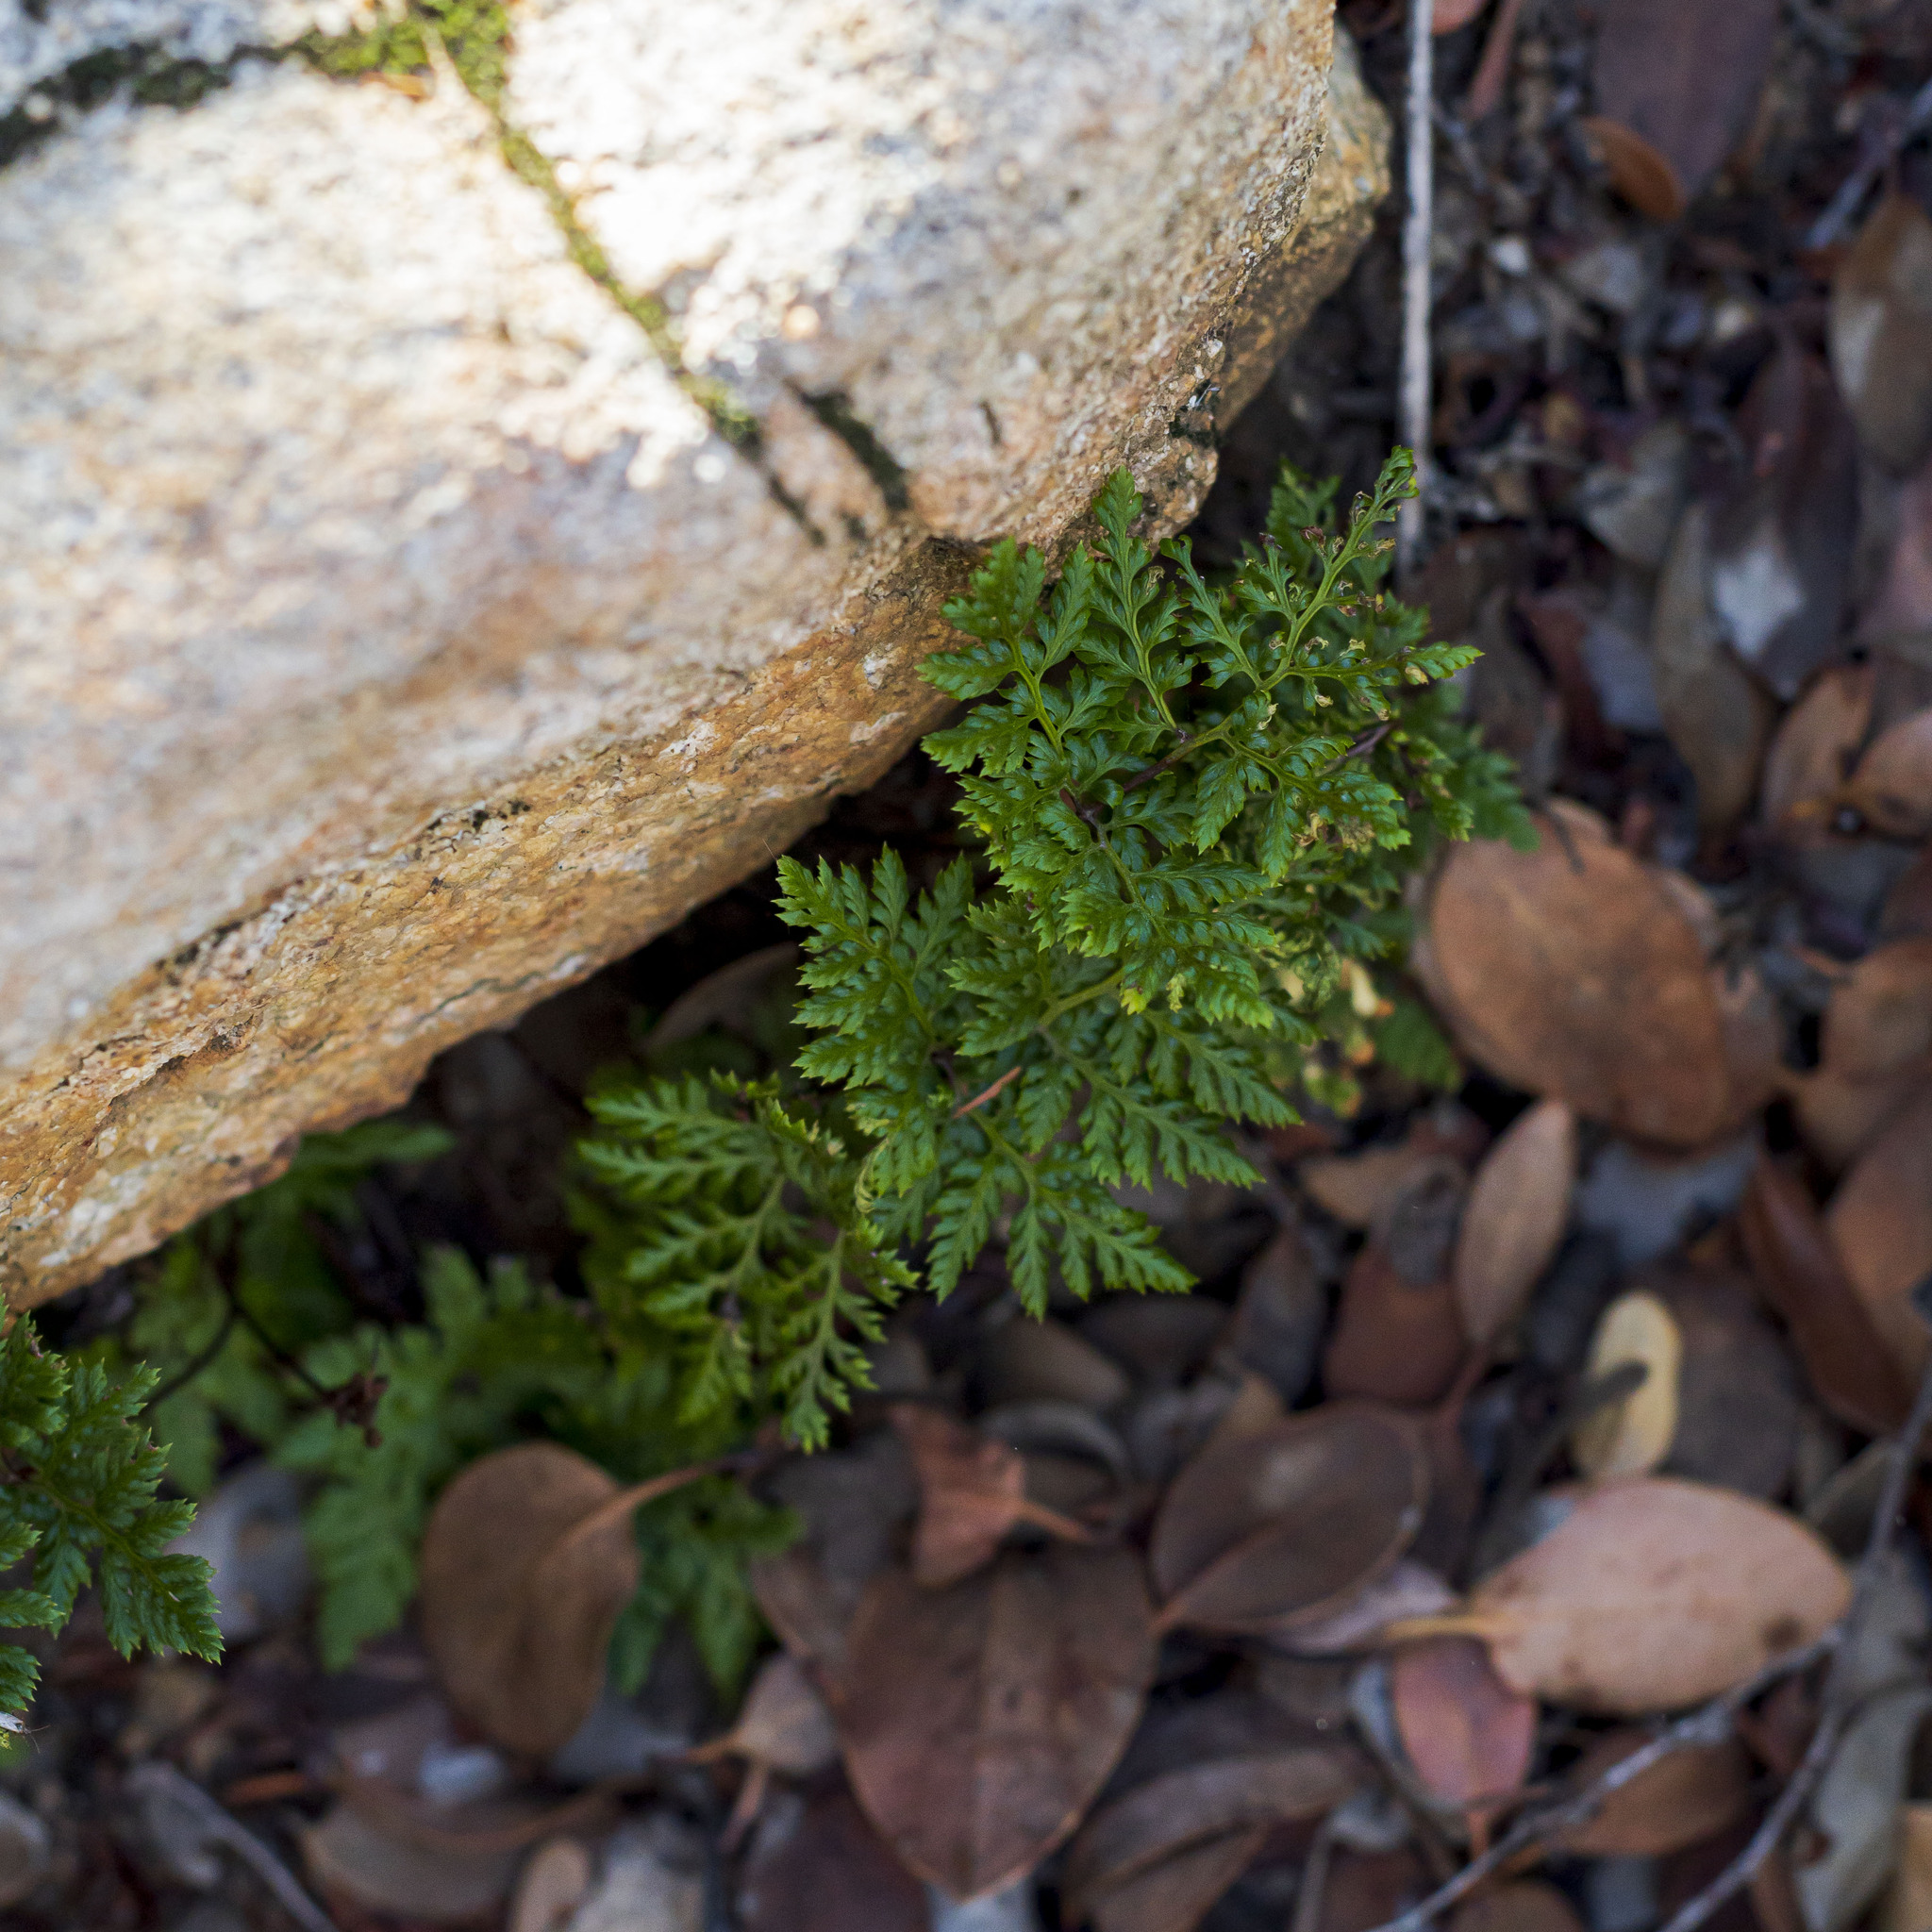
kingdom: Plantae
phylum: Tracheophyta
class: Polypodiopsida
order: Polypodiales
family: Pteridaceae
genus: Aspidotis
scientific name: Aspidotis californica
